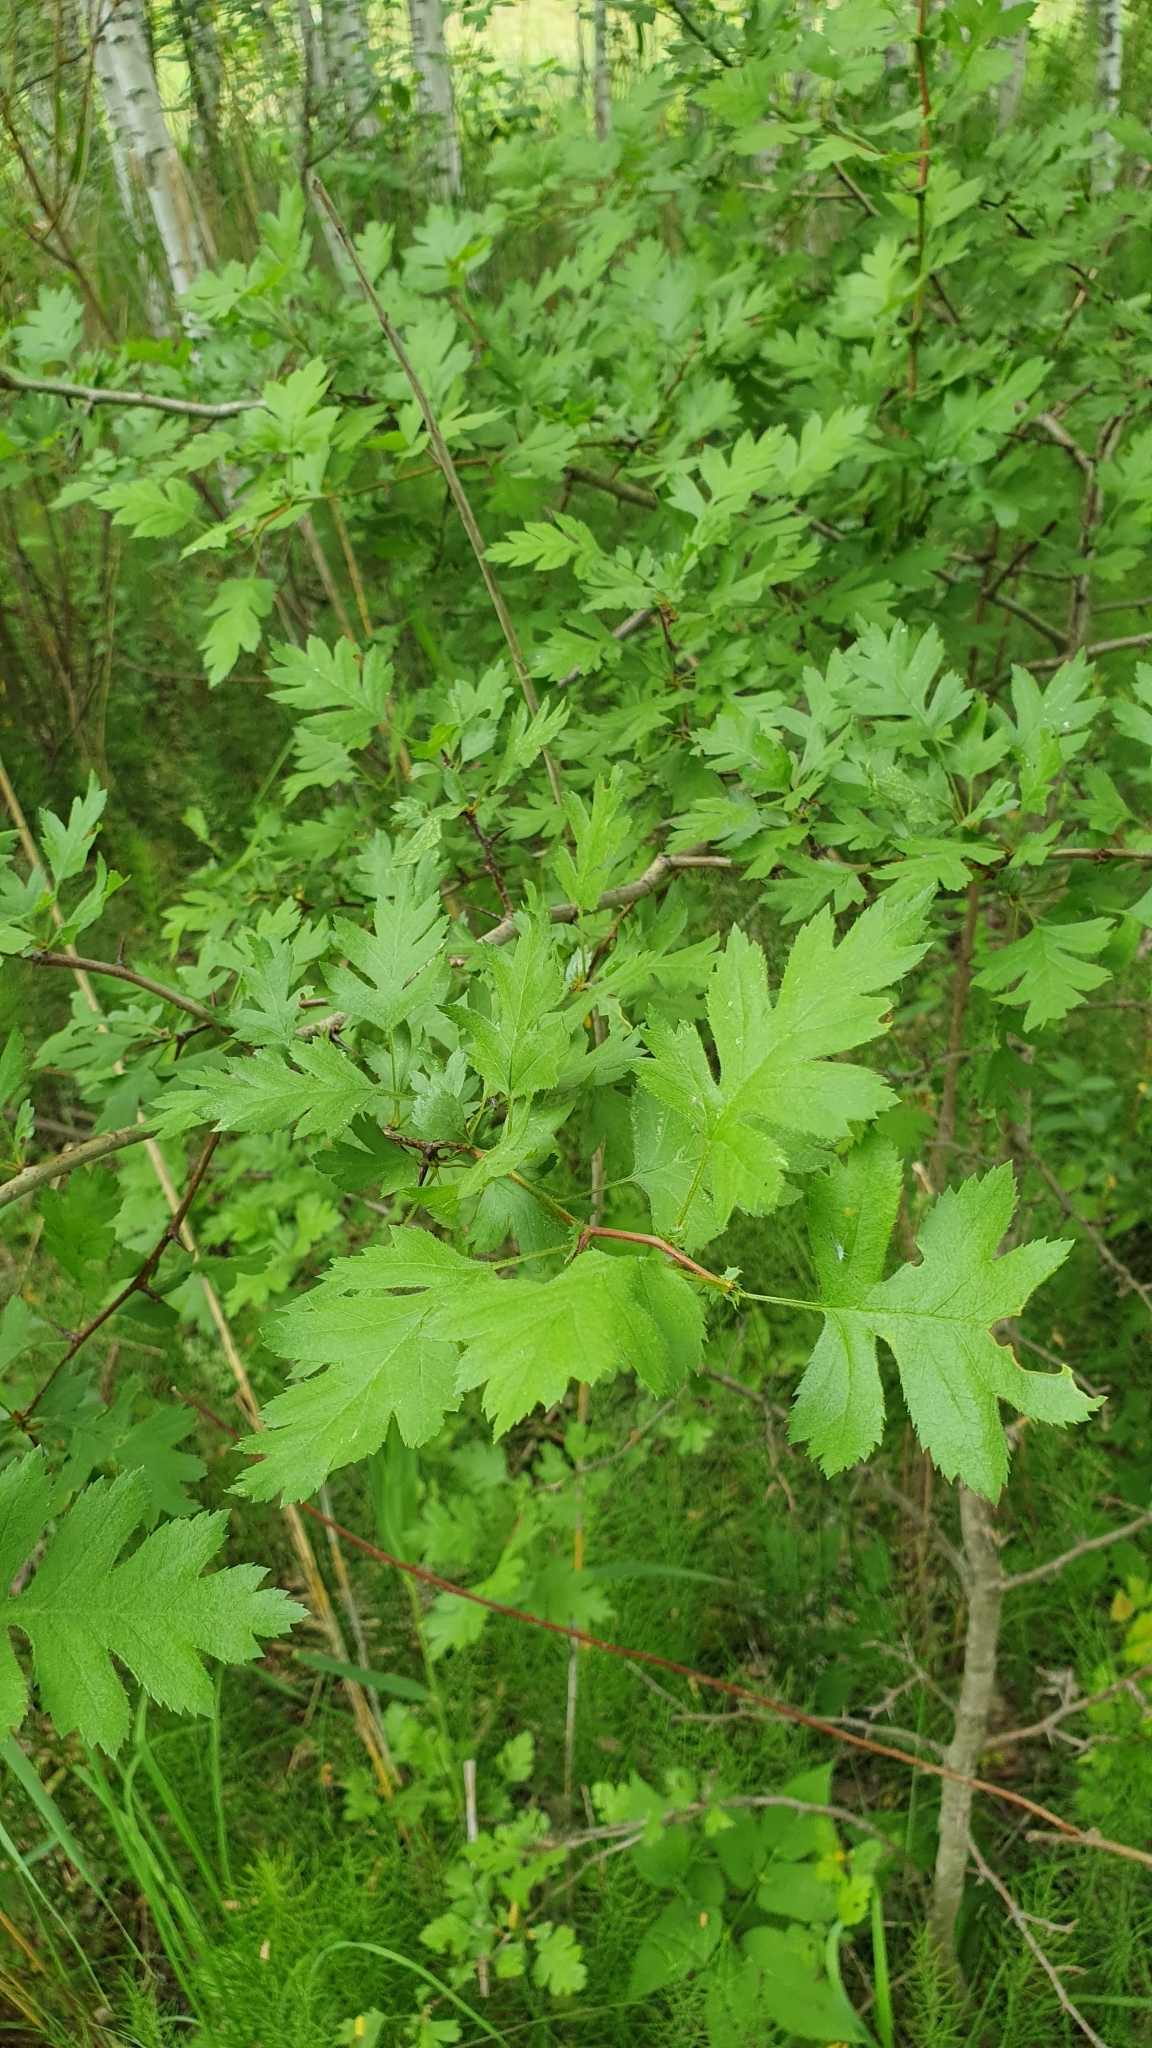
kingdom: Plantae
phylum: Tracheophyta
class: Magnoliopsida
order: Rosales
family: Rosaceae
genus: Crataegus
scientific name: Crataegus monogyna
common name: Hawthorn
